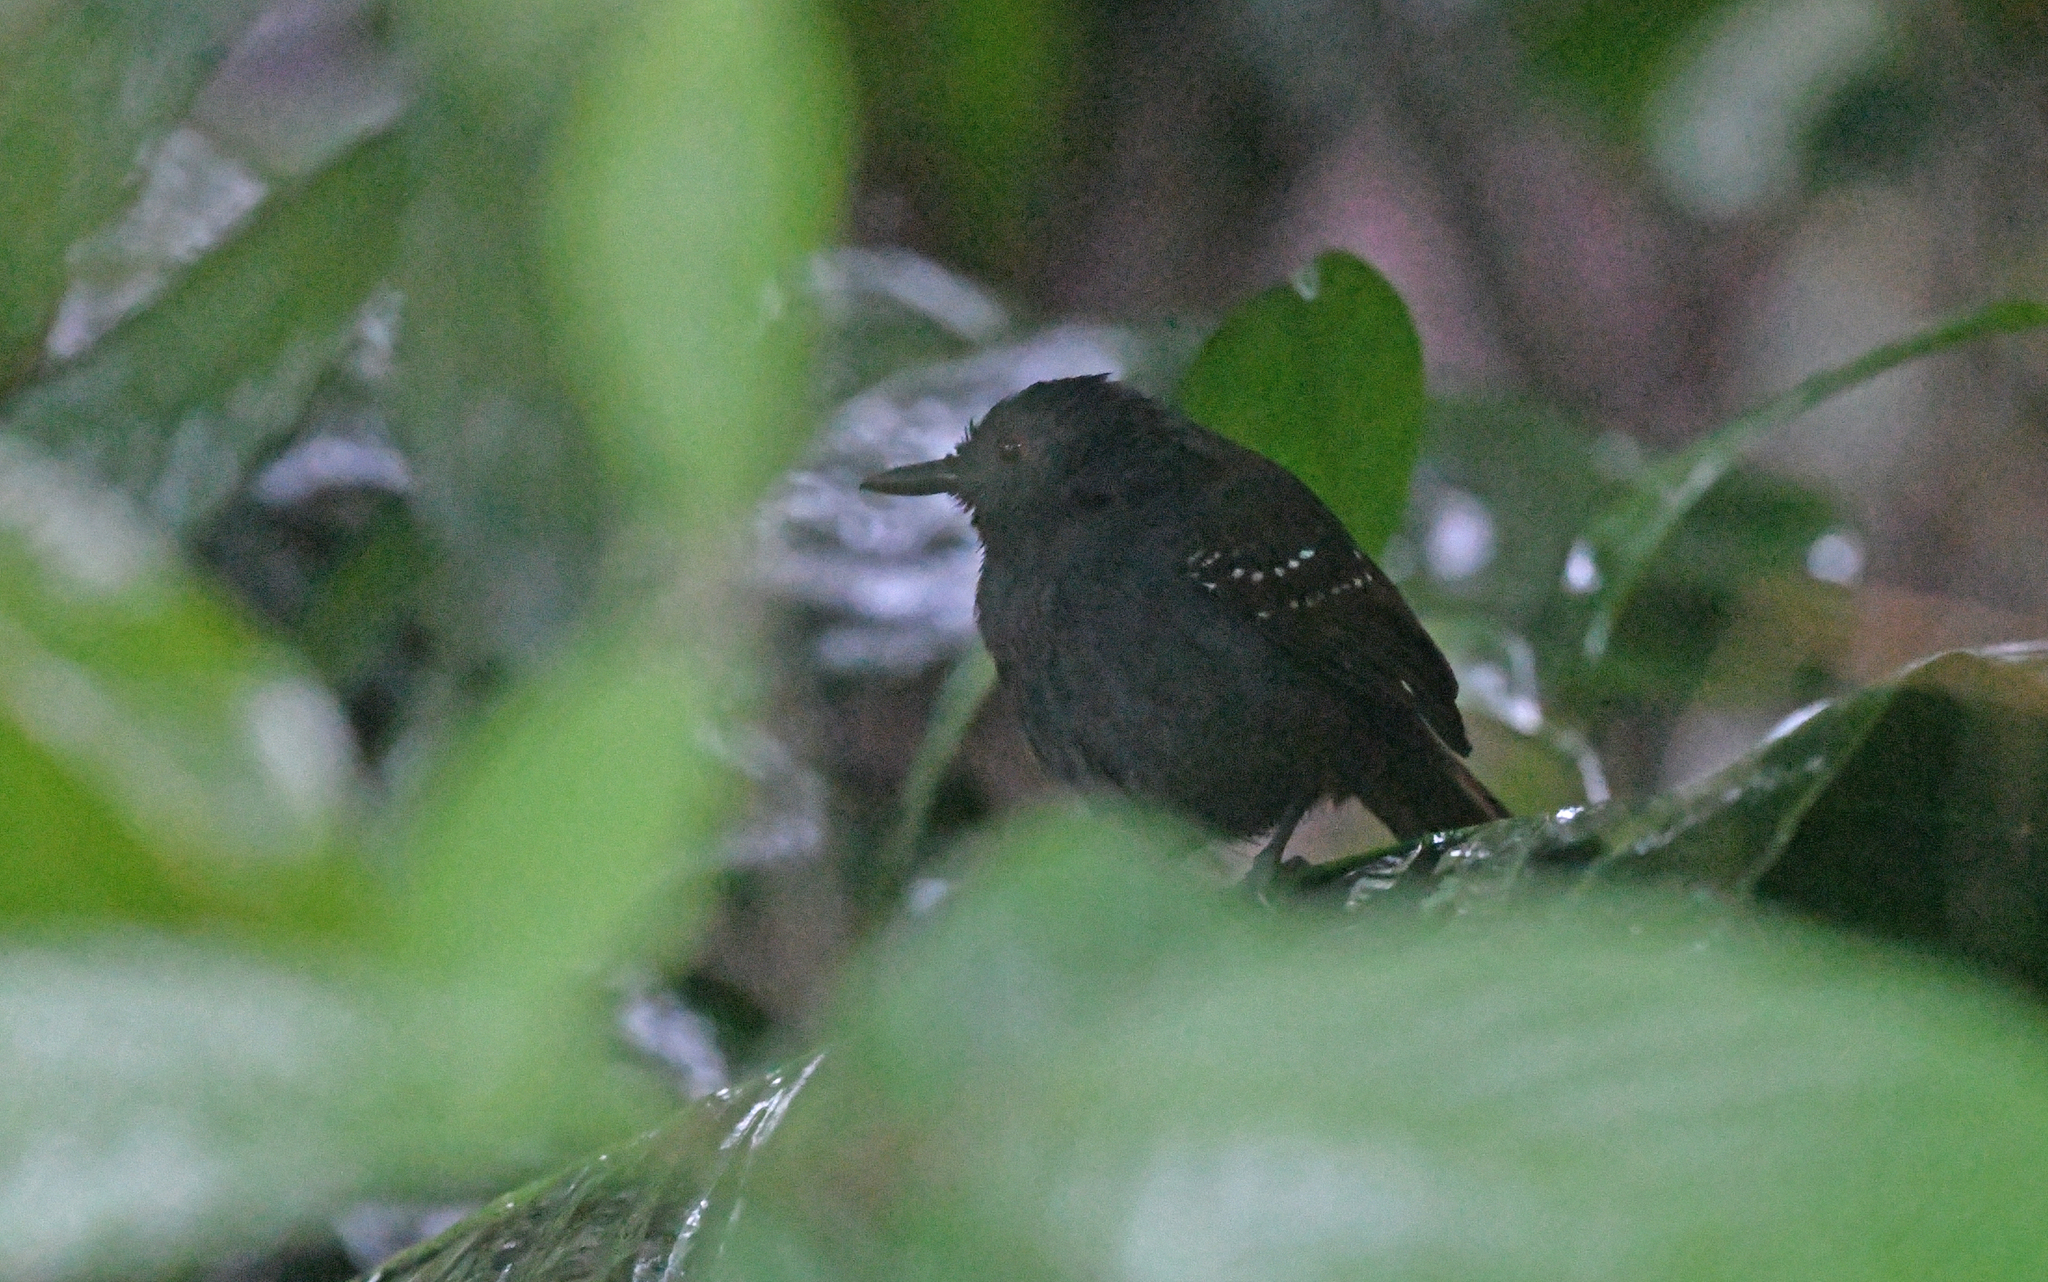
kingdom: Animalia
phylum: Chordata
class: Aves
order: Passeriformes
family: Thamnophilidae
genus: Sipia
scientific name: Sipia palliata
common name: Magdalena antbird
